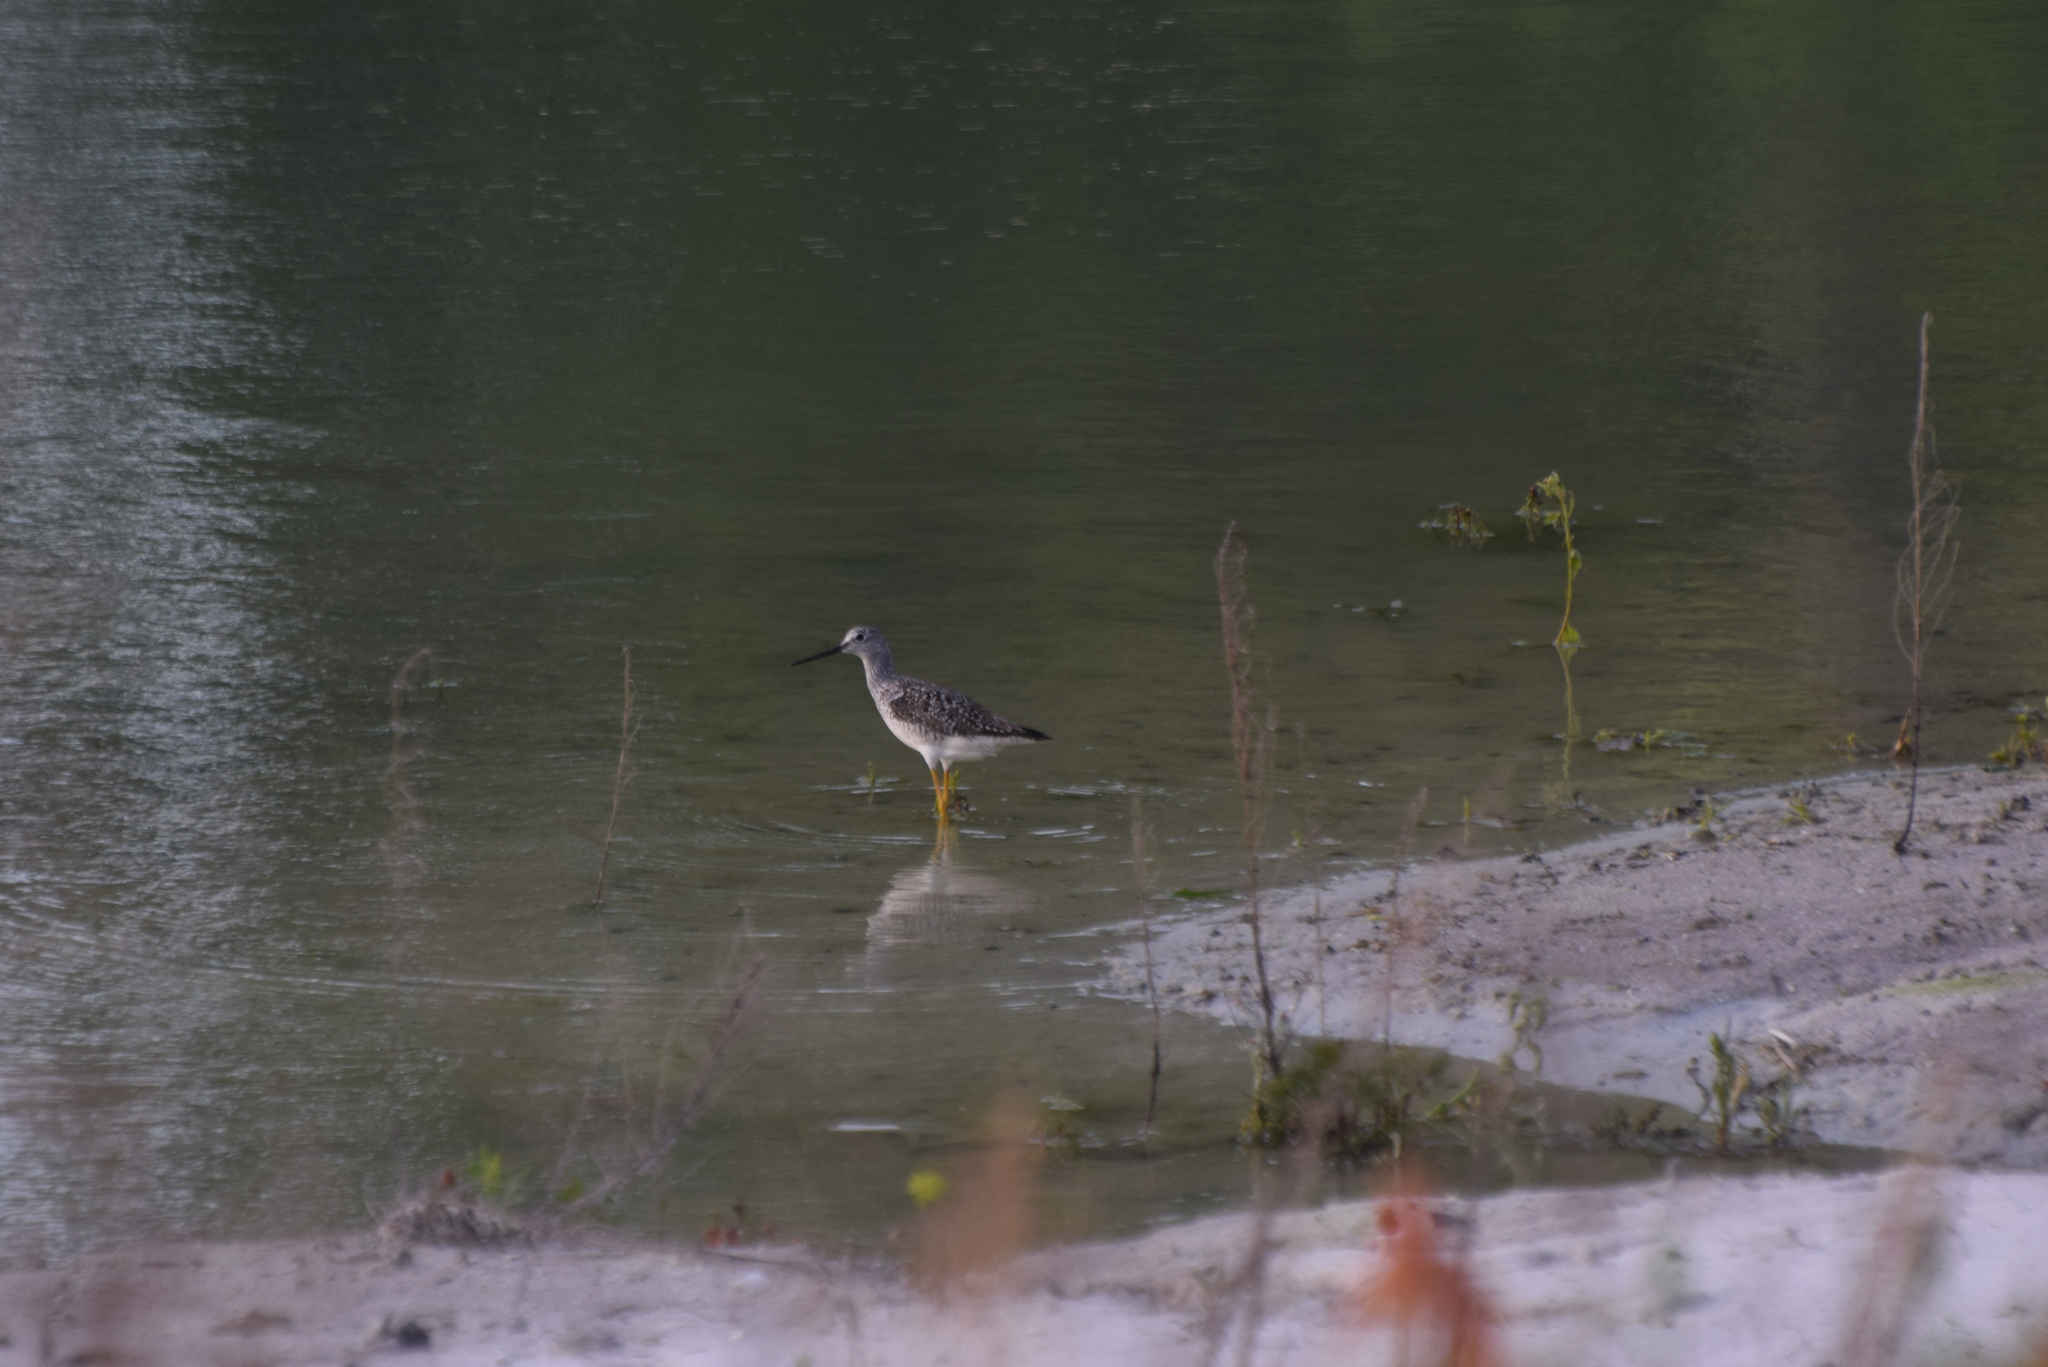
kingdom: Animalia
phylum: Chordata
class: Aves
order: Charadriiformes
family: Scolopacidae
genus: Tringa
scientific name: Tringa melanoleuca
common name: Greater yellowlegs
